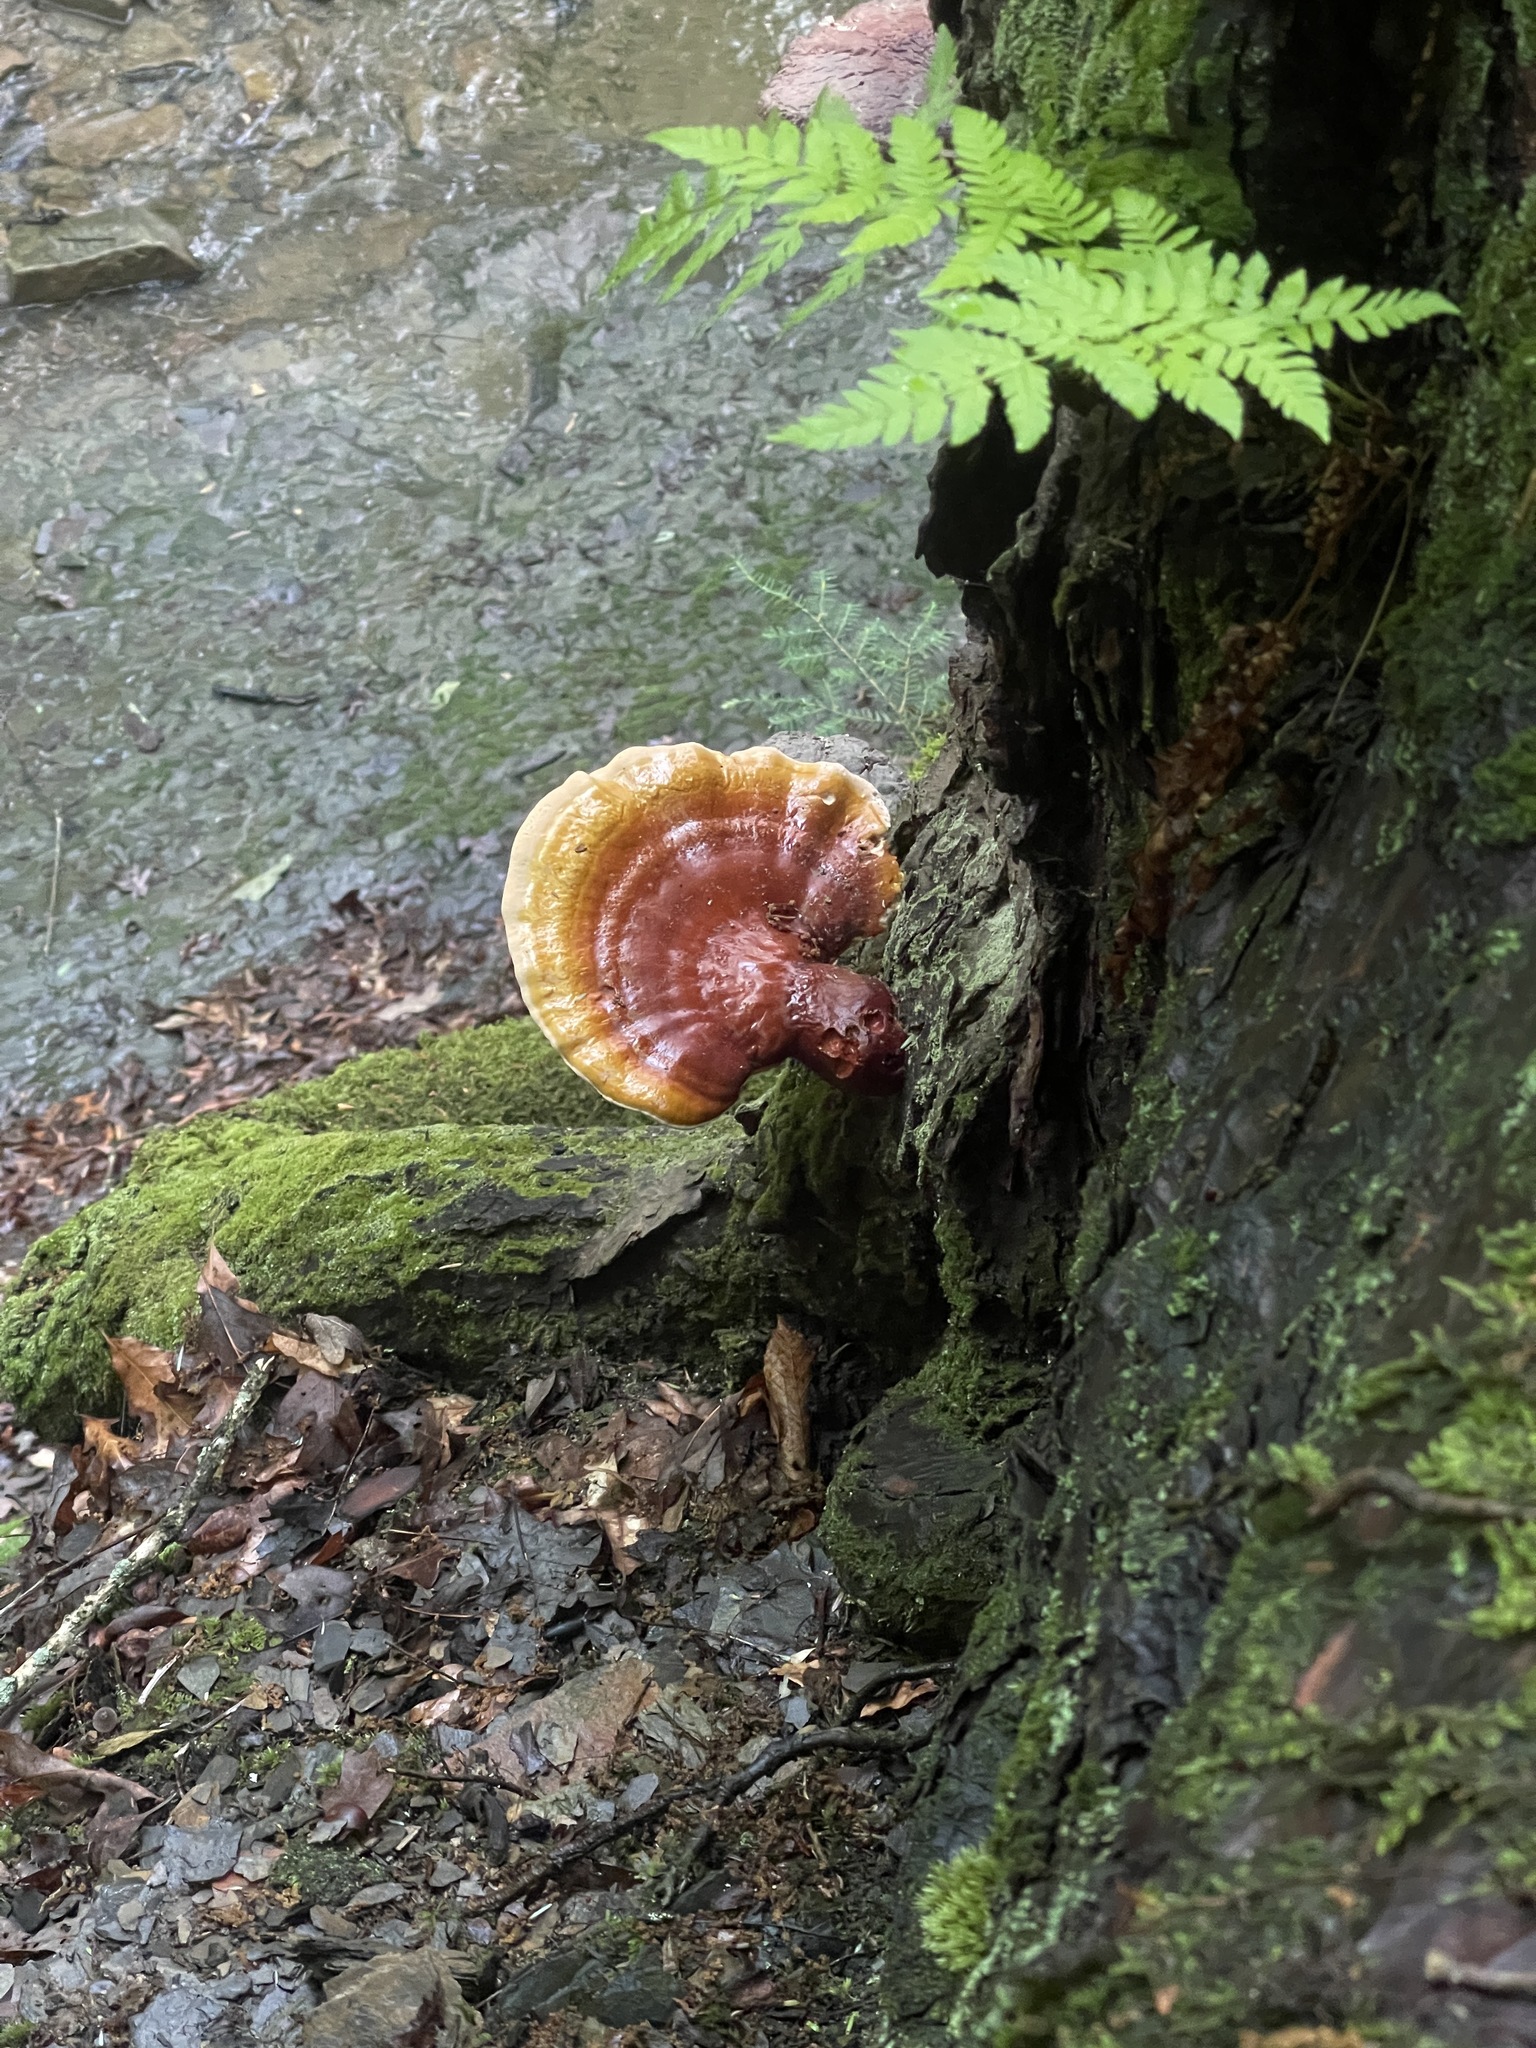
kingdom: Fungi
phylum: Basidiomycota
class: Agaricomycetes
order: Polyporales
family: Polyporaceae
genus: Ganoderma
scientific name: Ganoderma tsugae
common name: Hemlock varnish shelf
